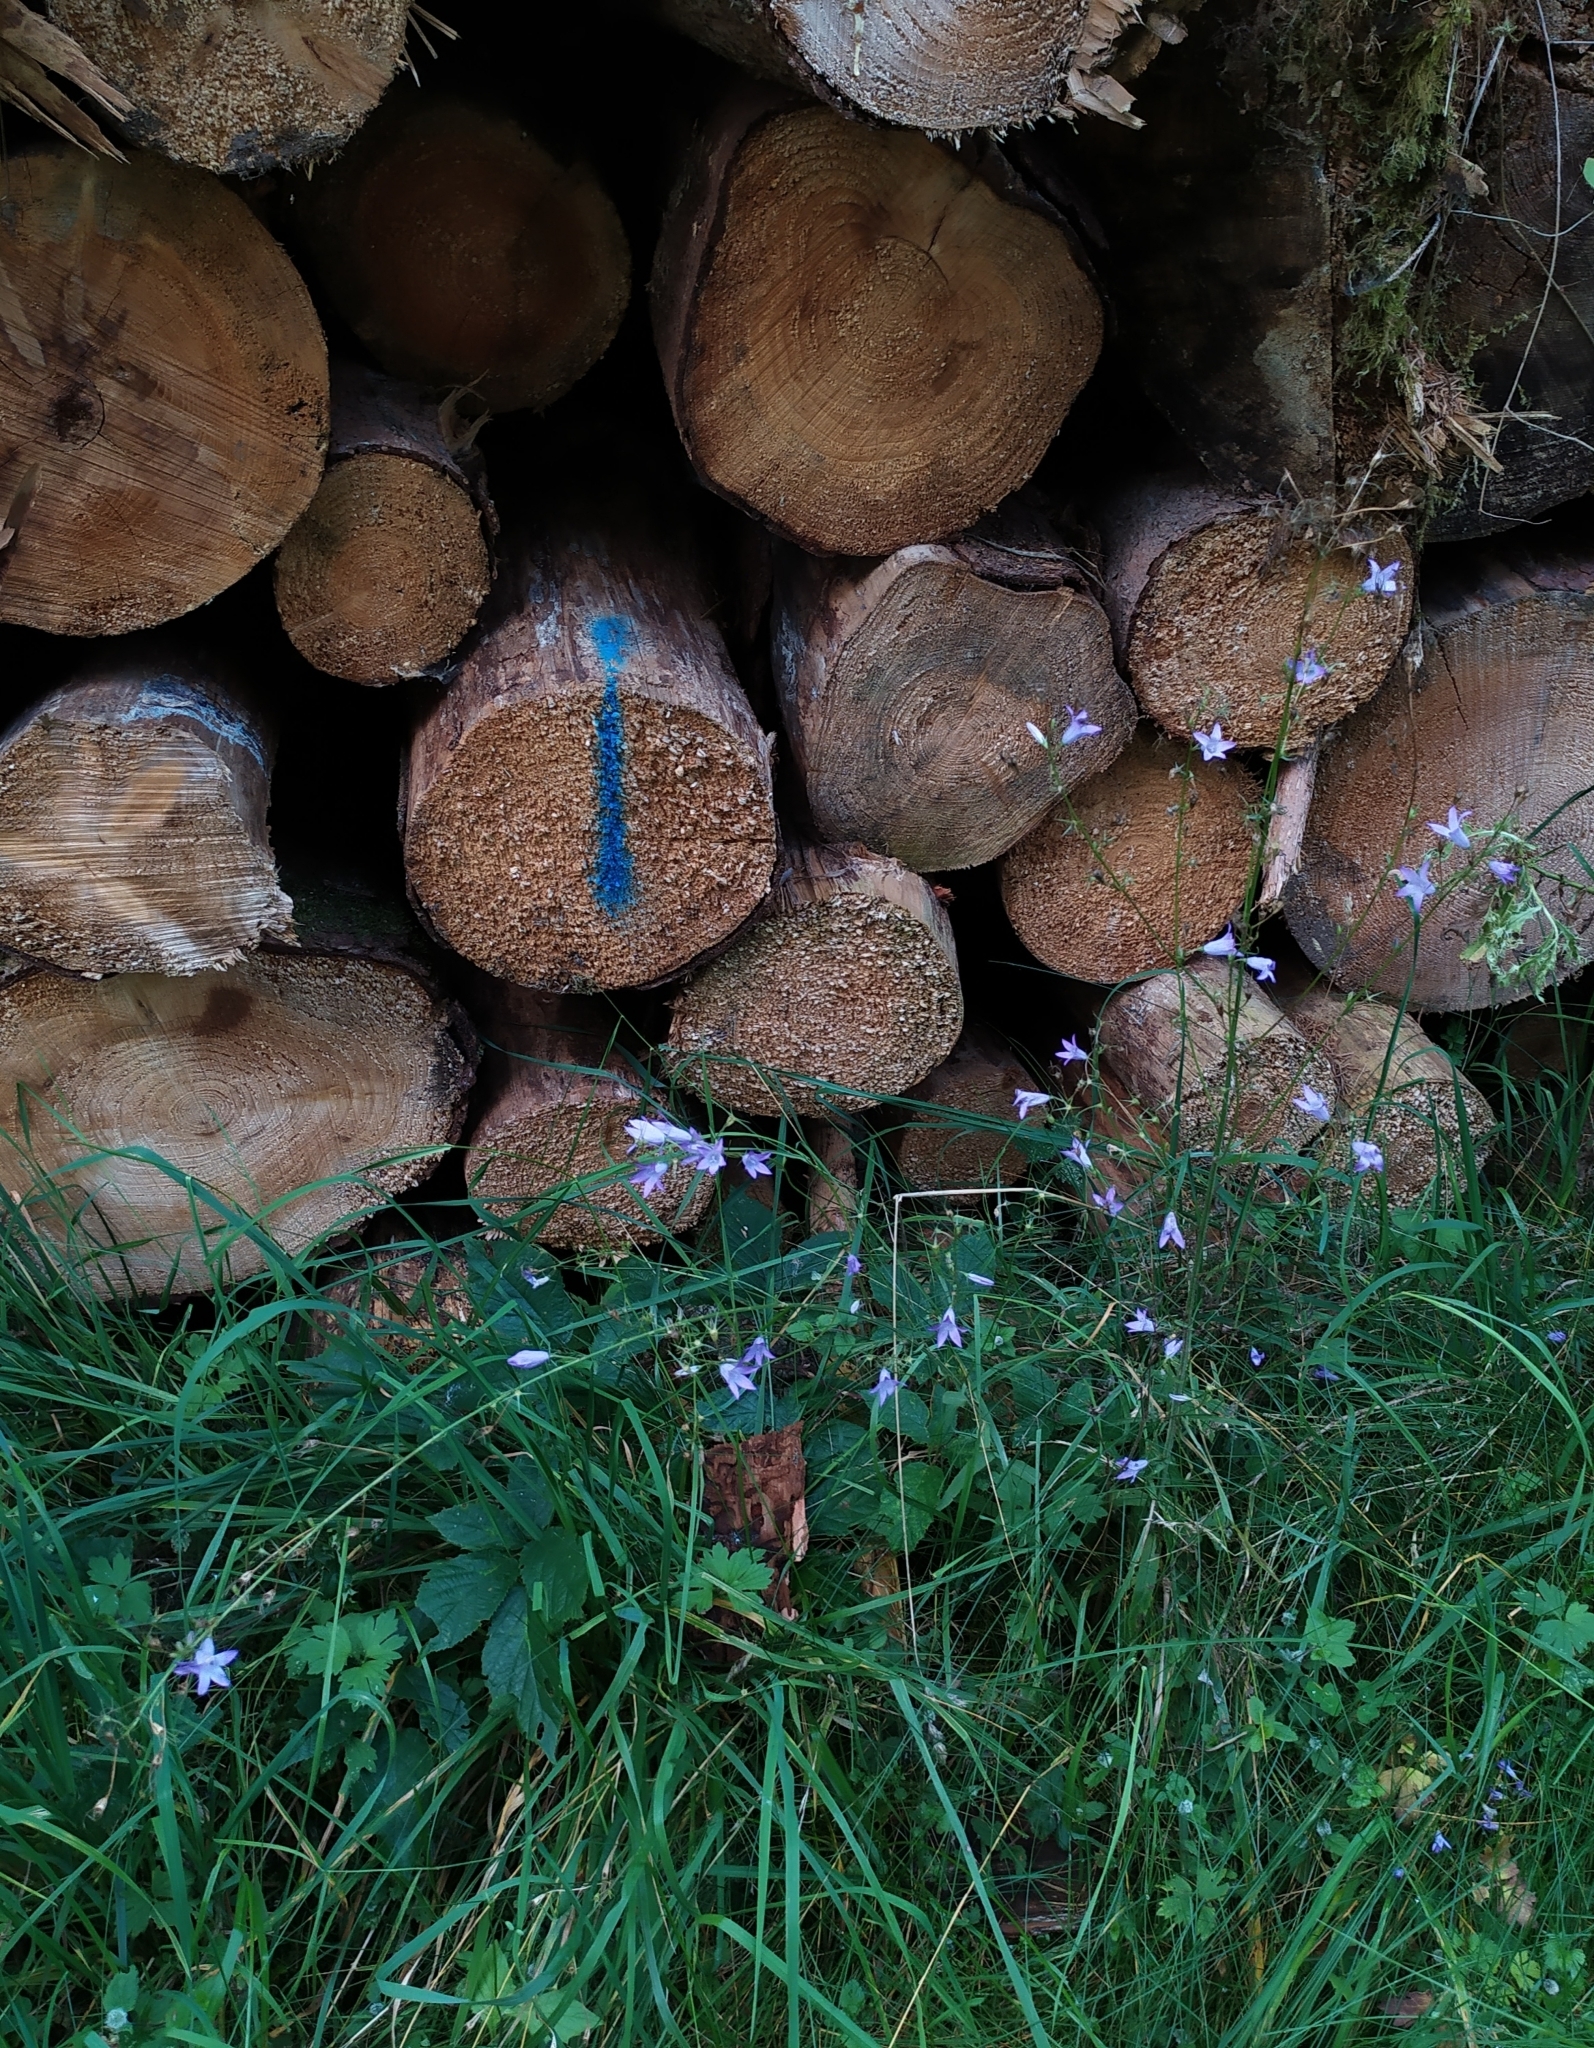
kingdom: Plantae
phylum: Tracheophyta
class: Magnoliopsida
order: Asterales
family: Campanulaceae
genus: Campanula
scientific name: Campanula rapunculus
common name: Rampion bellflower
